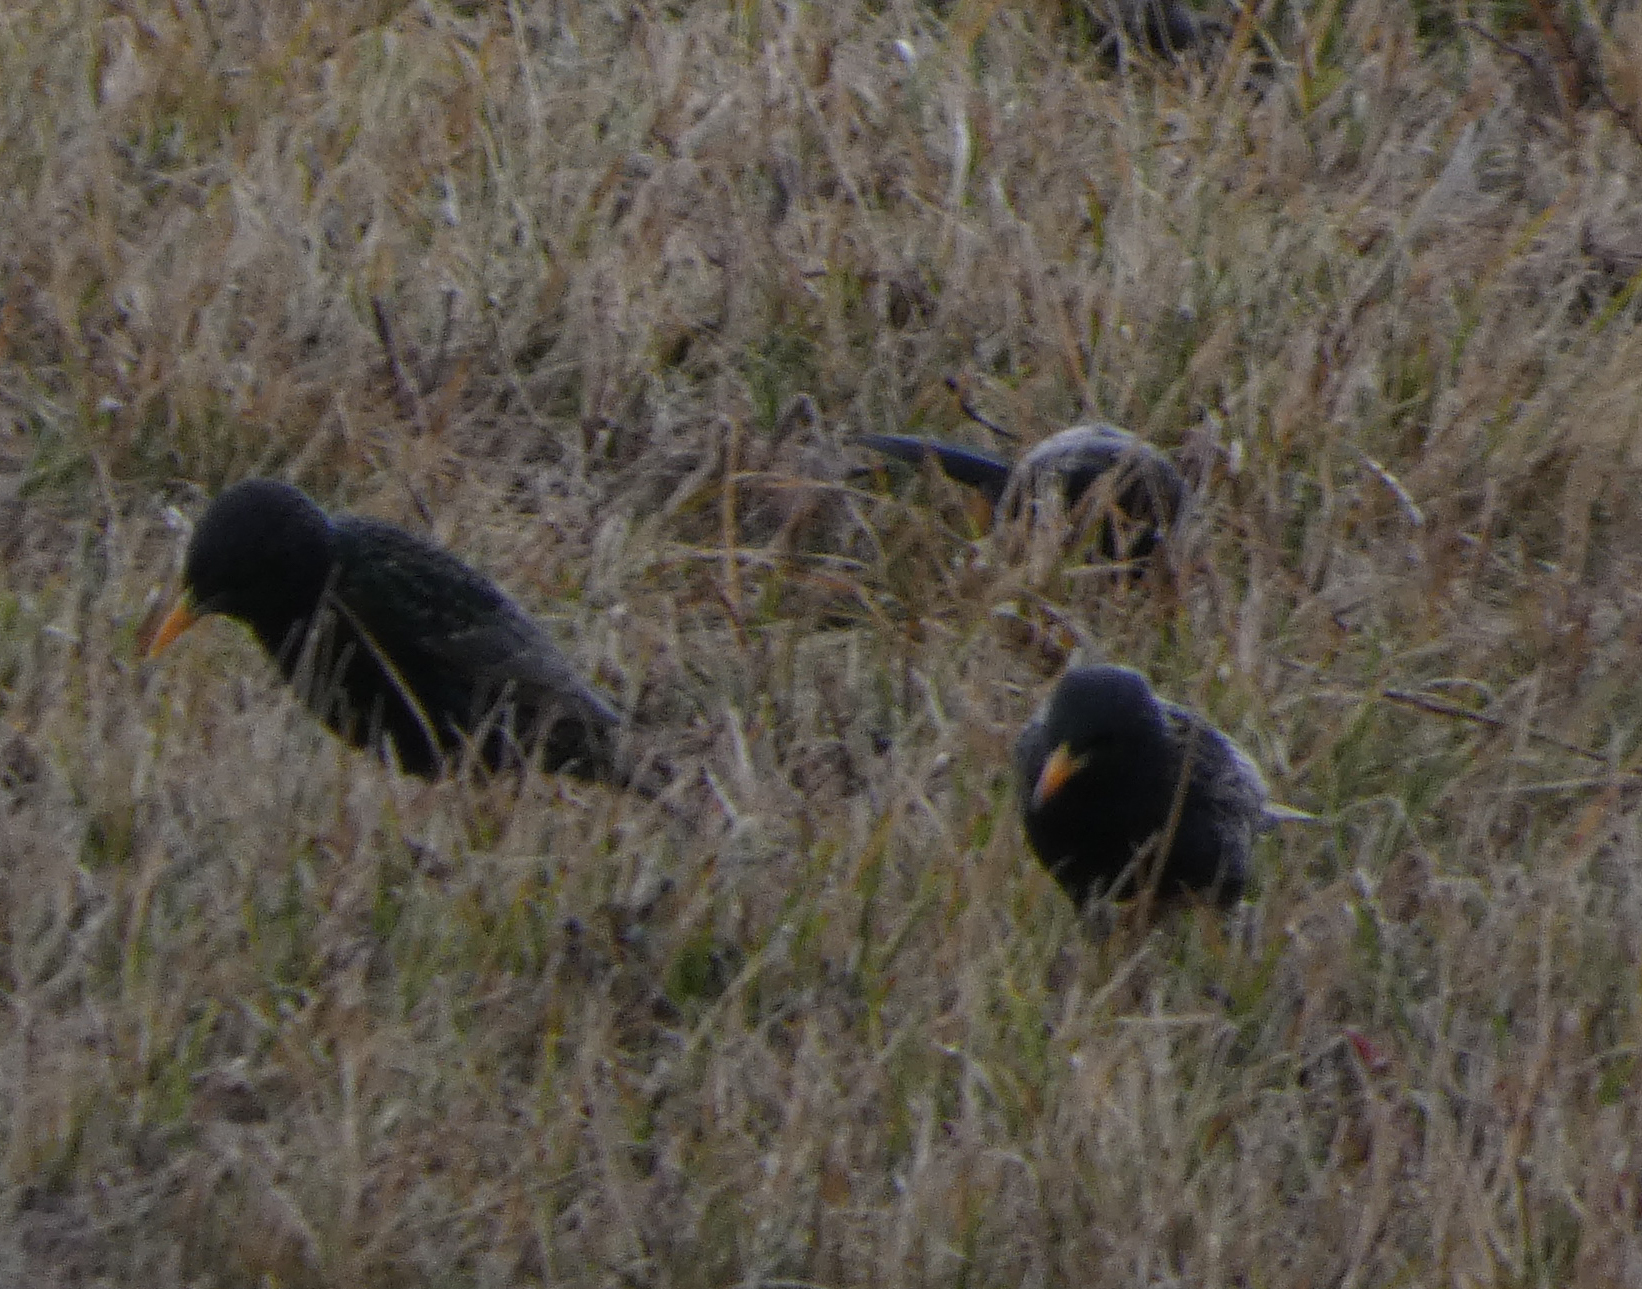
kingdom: Animalia
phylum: Chordata
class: Aves
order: Passeriformes
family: Sturnidae
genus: Sturnus
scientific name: Sturnus vulgaris
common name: Common starling
